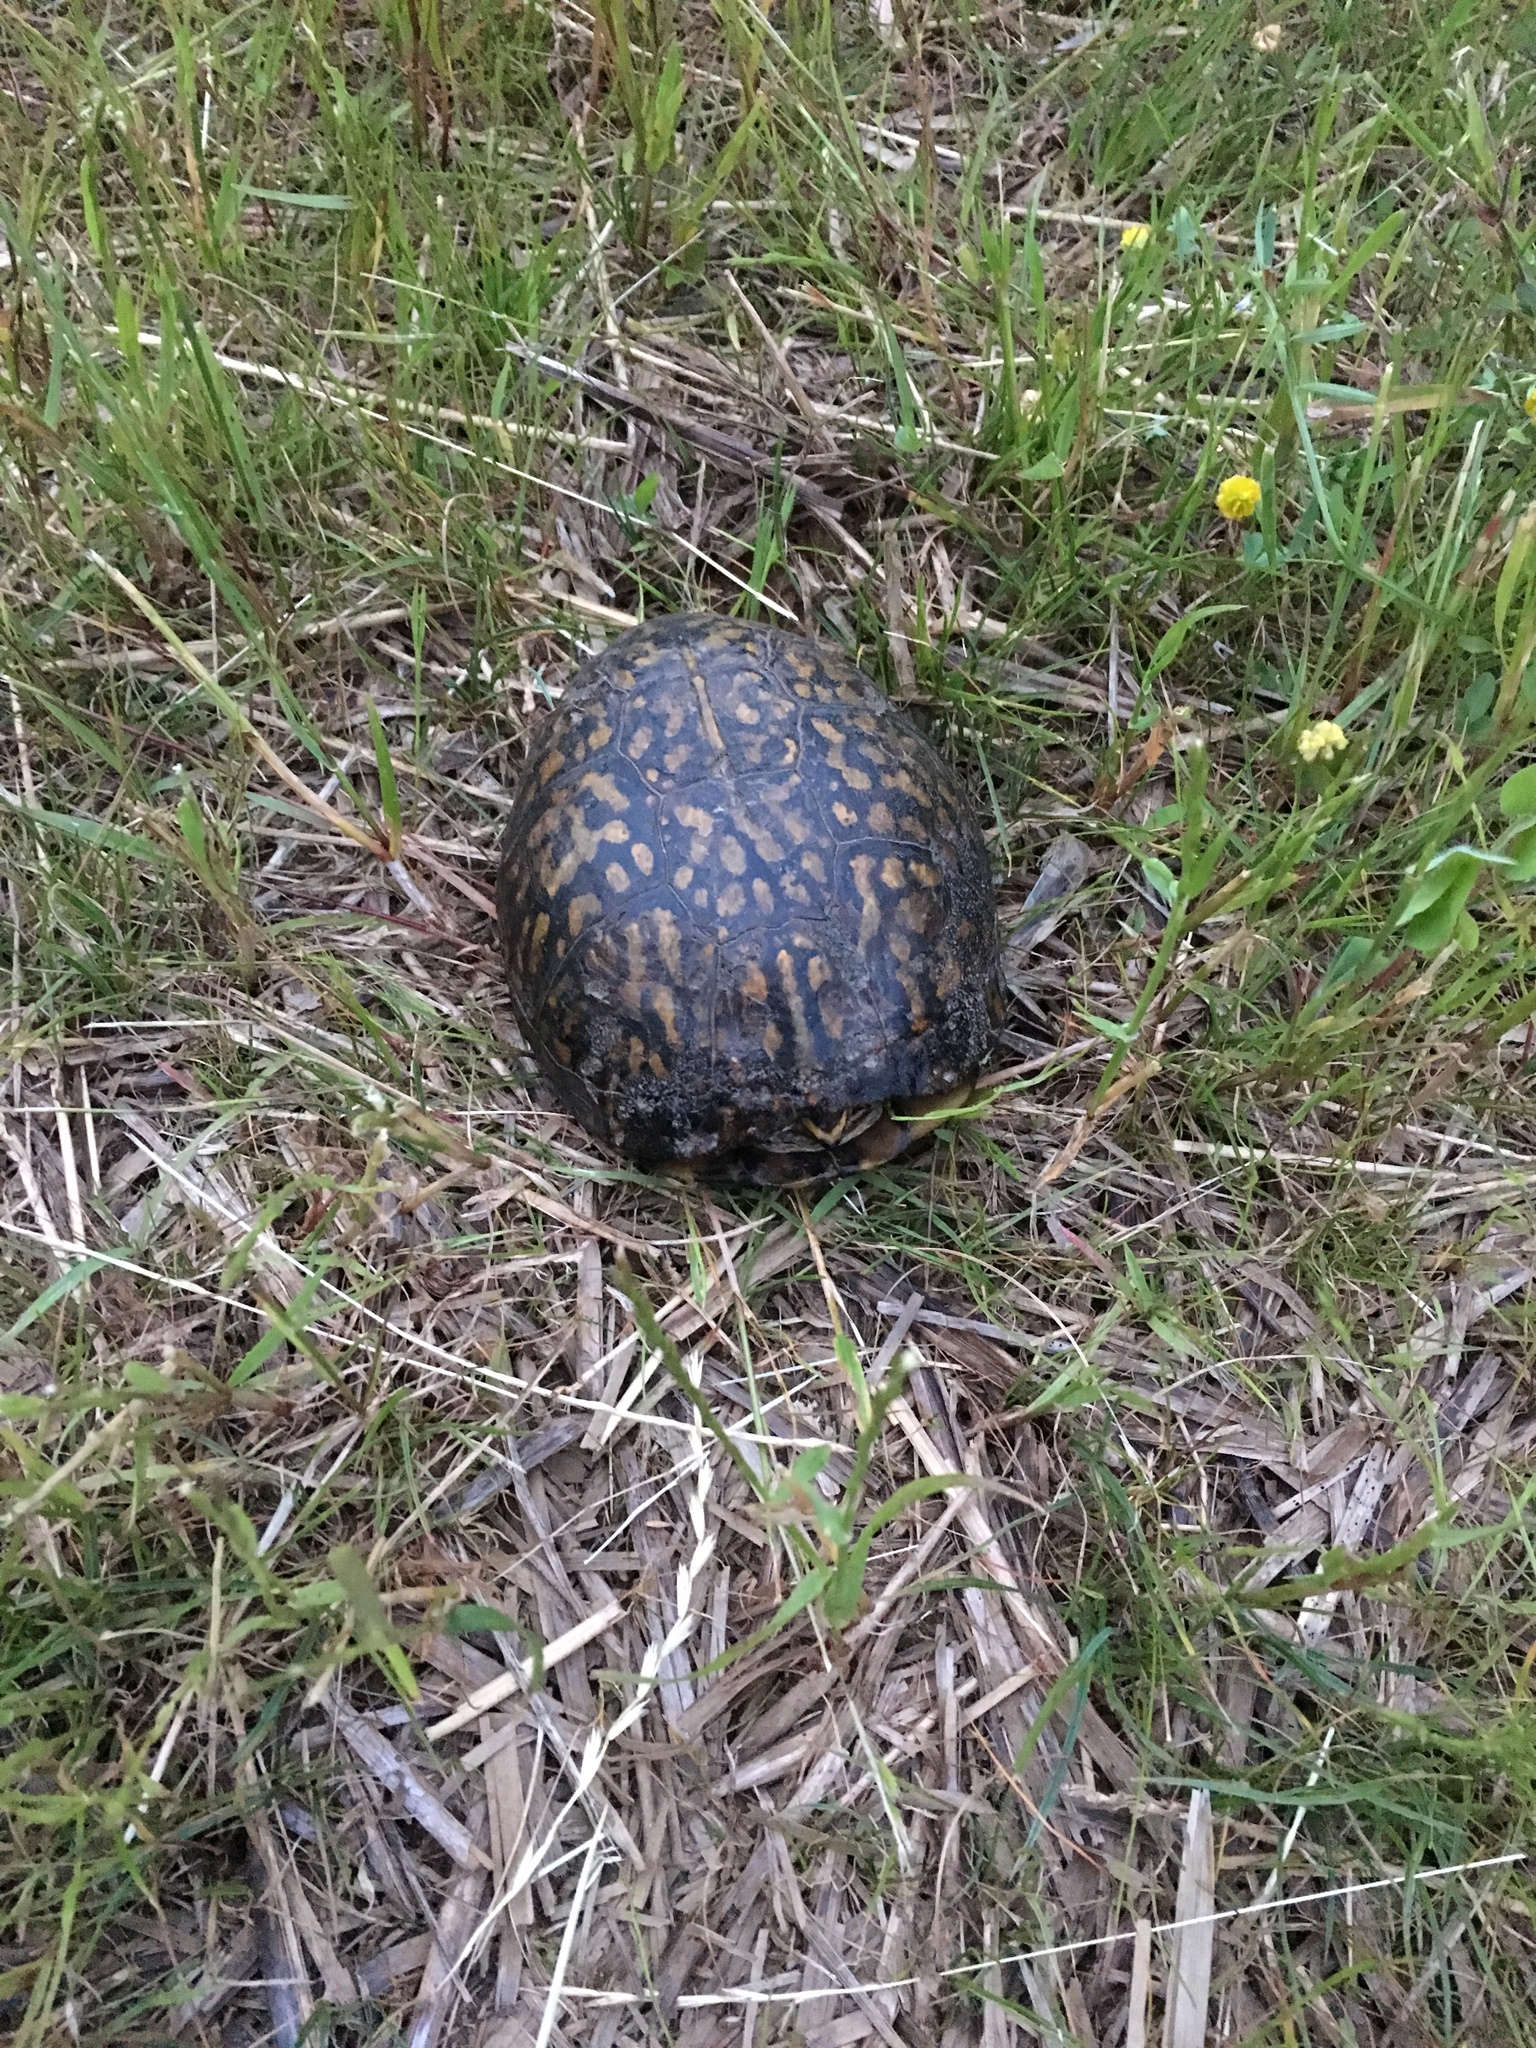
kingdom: Animalia
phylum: Chordata
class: Testudines
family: Emydidae
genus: Terrapene
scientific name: Terrapene carolina
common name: Common box turtle
